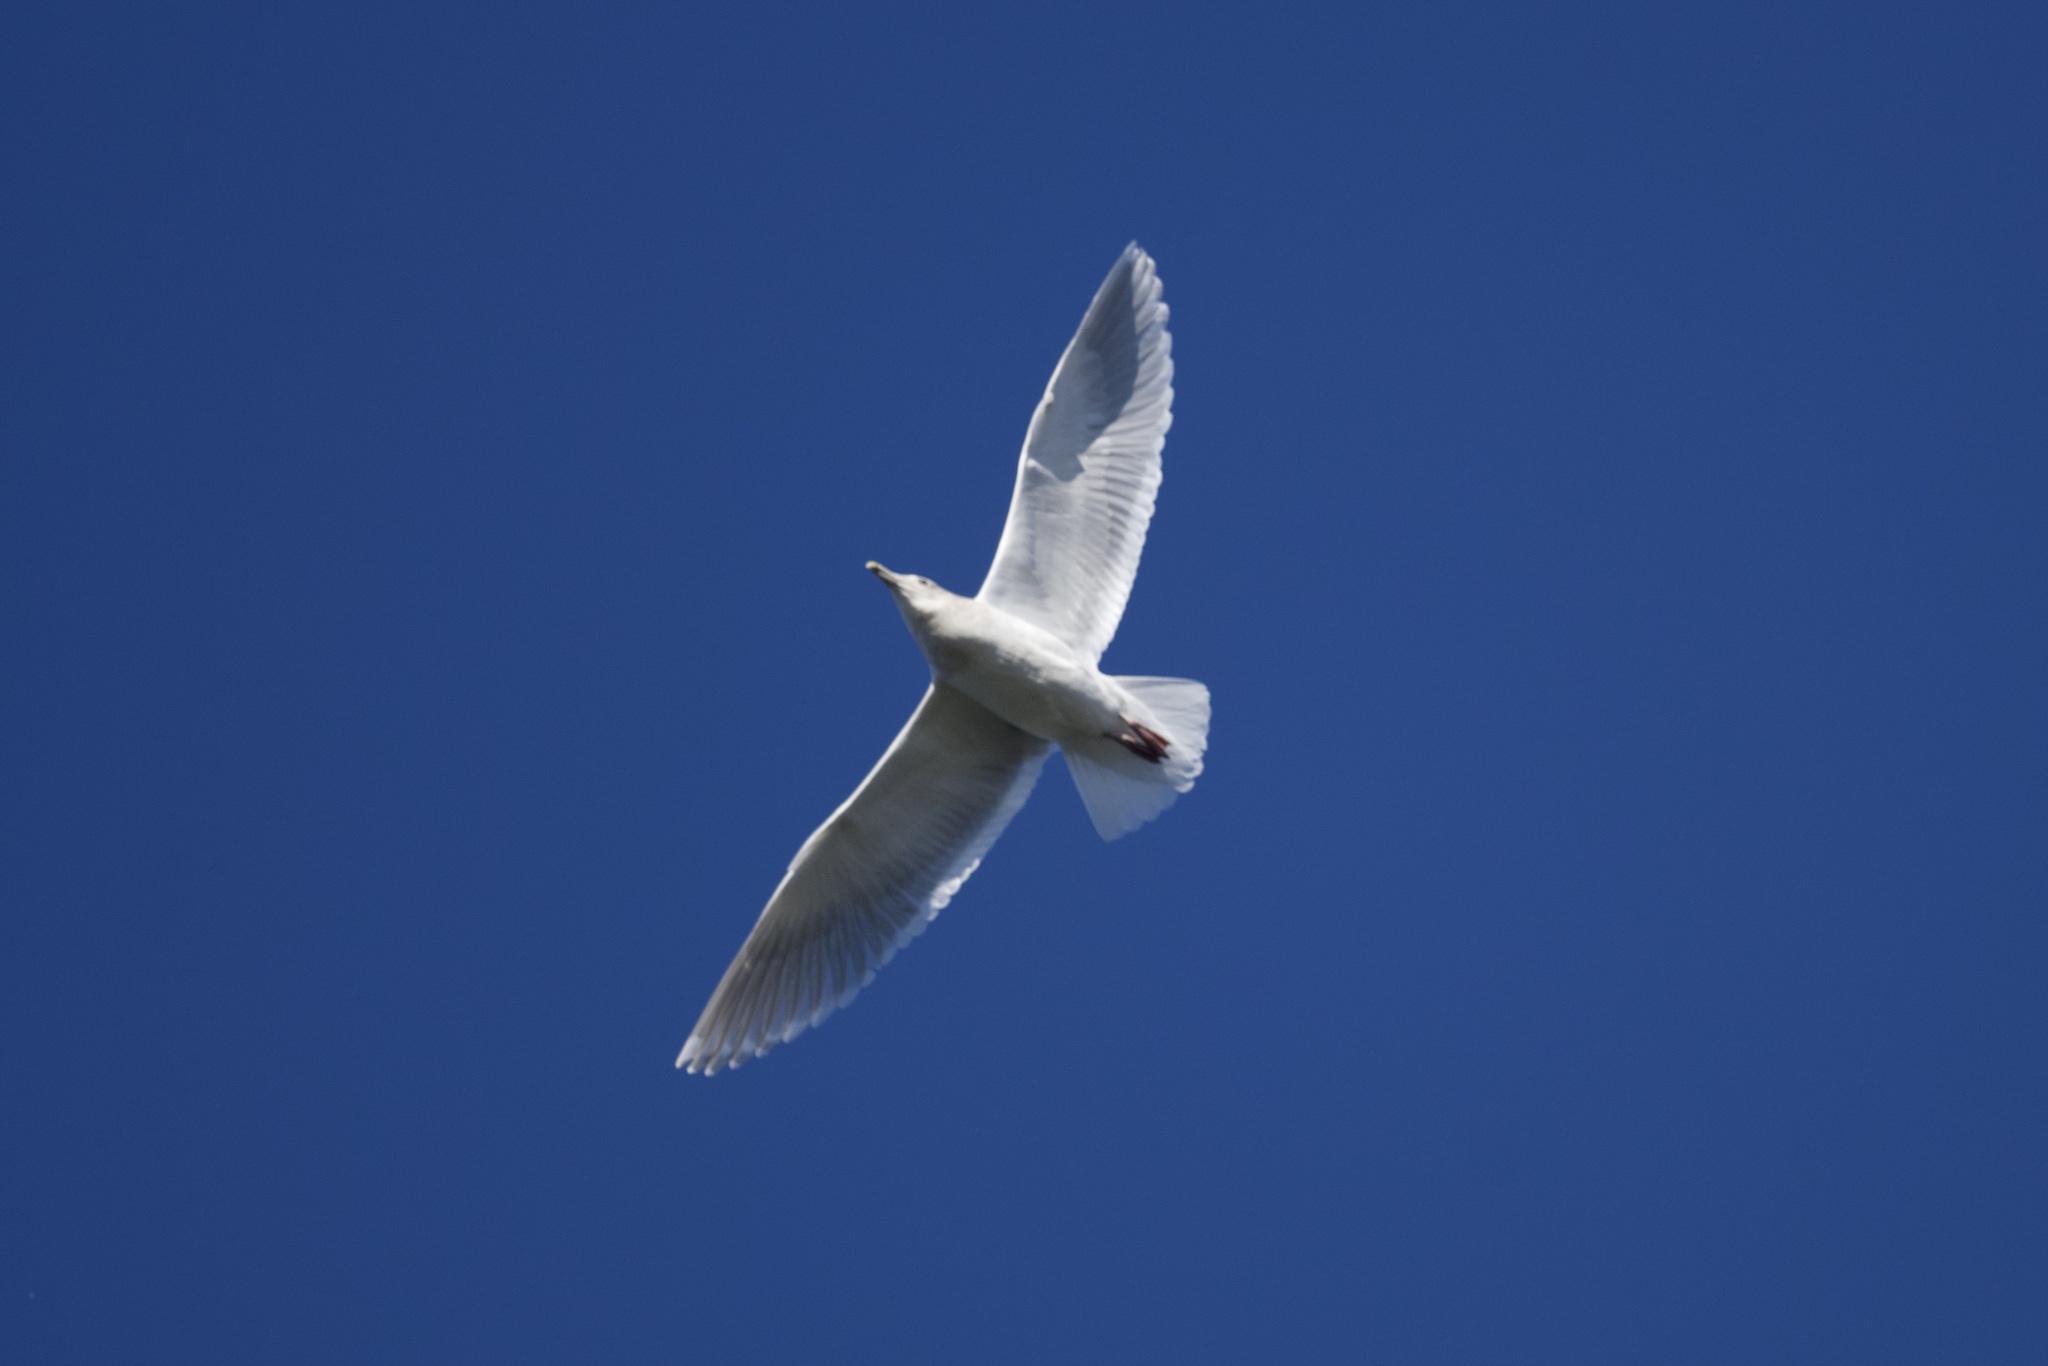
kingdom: Animalia
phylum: Chordata
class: Aves
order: Charadriiformes
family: Laridae
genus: Larus
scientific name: Larus glaucescens
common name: Glaucous-winged gull
